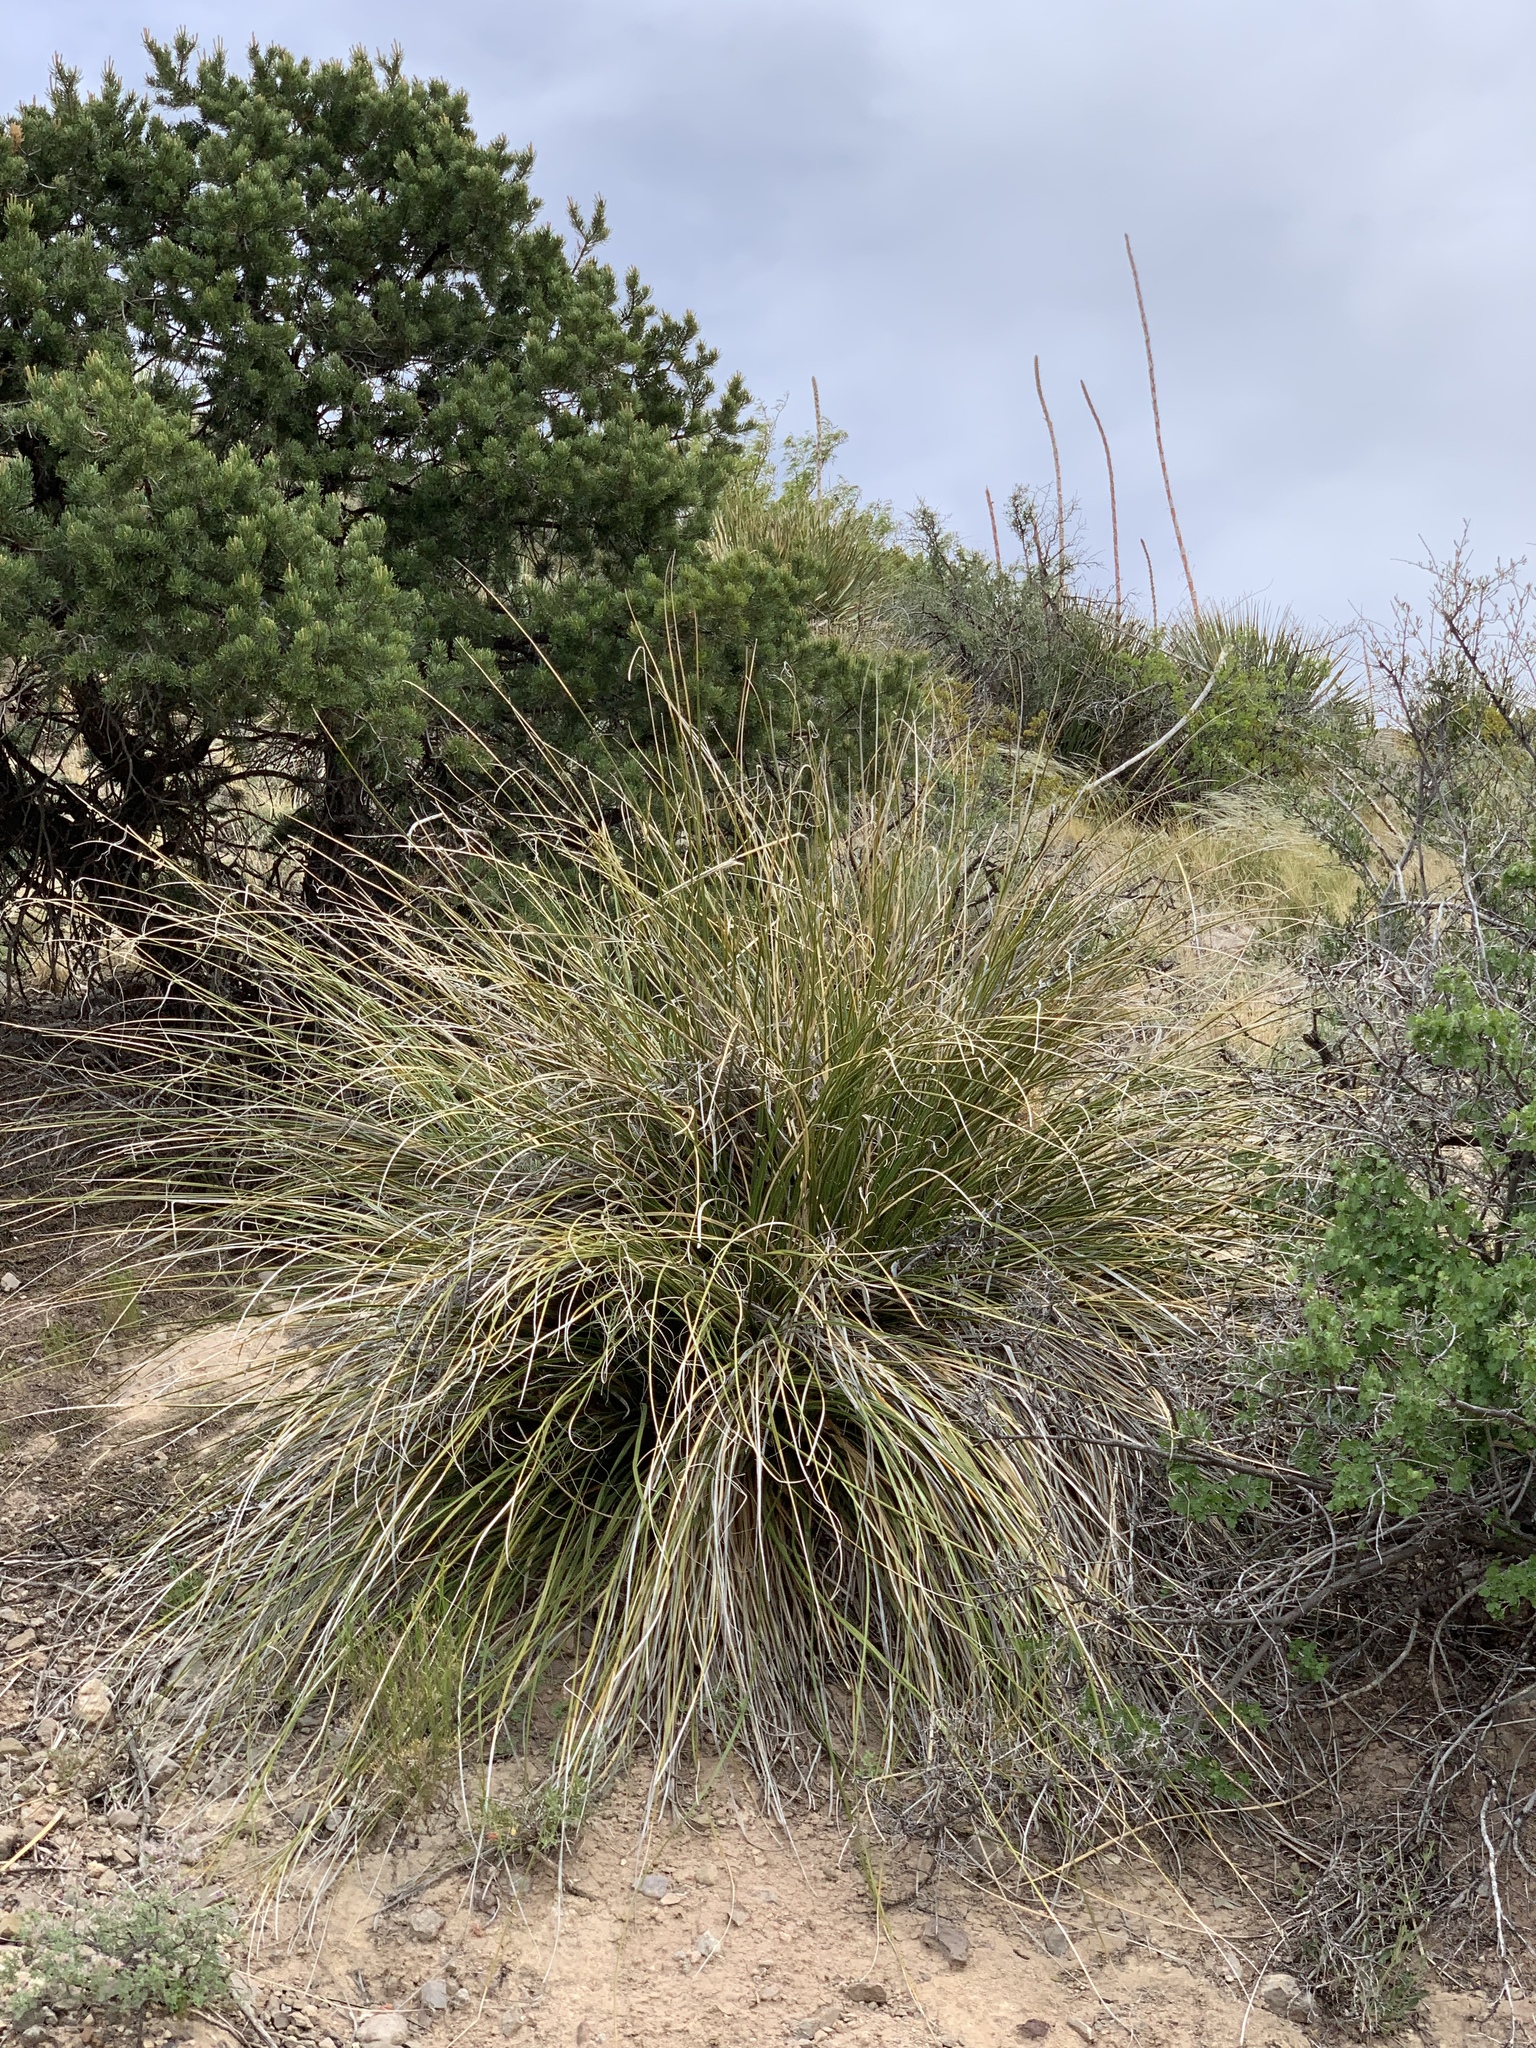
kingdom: Plantae
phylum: Tracheophyta
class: Liliopsida
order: Asparagales
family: Asparagaceae
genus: Nolina
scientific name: Nolina texana
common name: Texas sacahuiste
